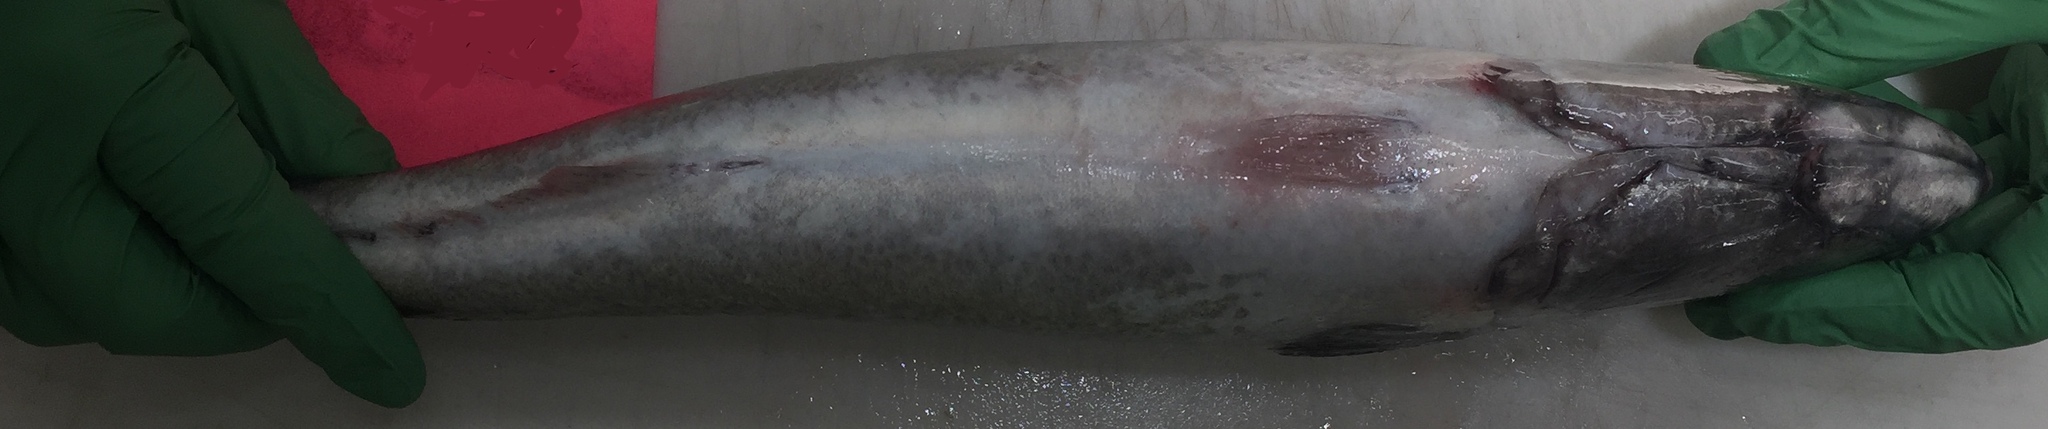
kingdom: Animalia
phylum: Chordata
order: Perciformes
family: Scombridae
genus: Scomber
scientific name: Scomber japonicus
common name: Chub mackerel
